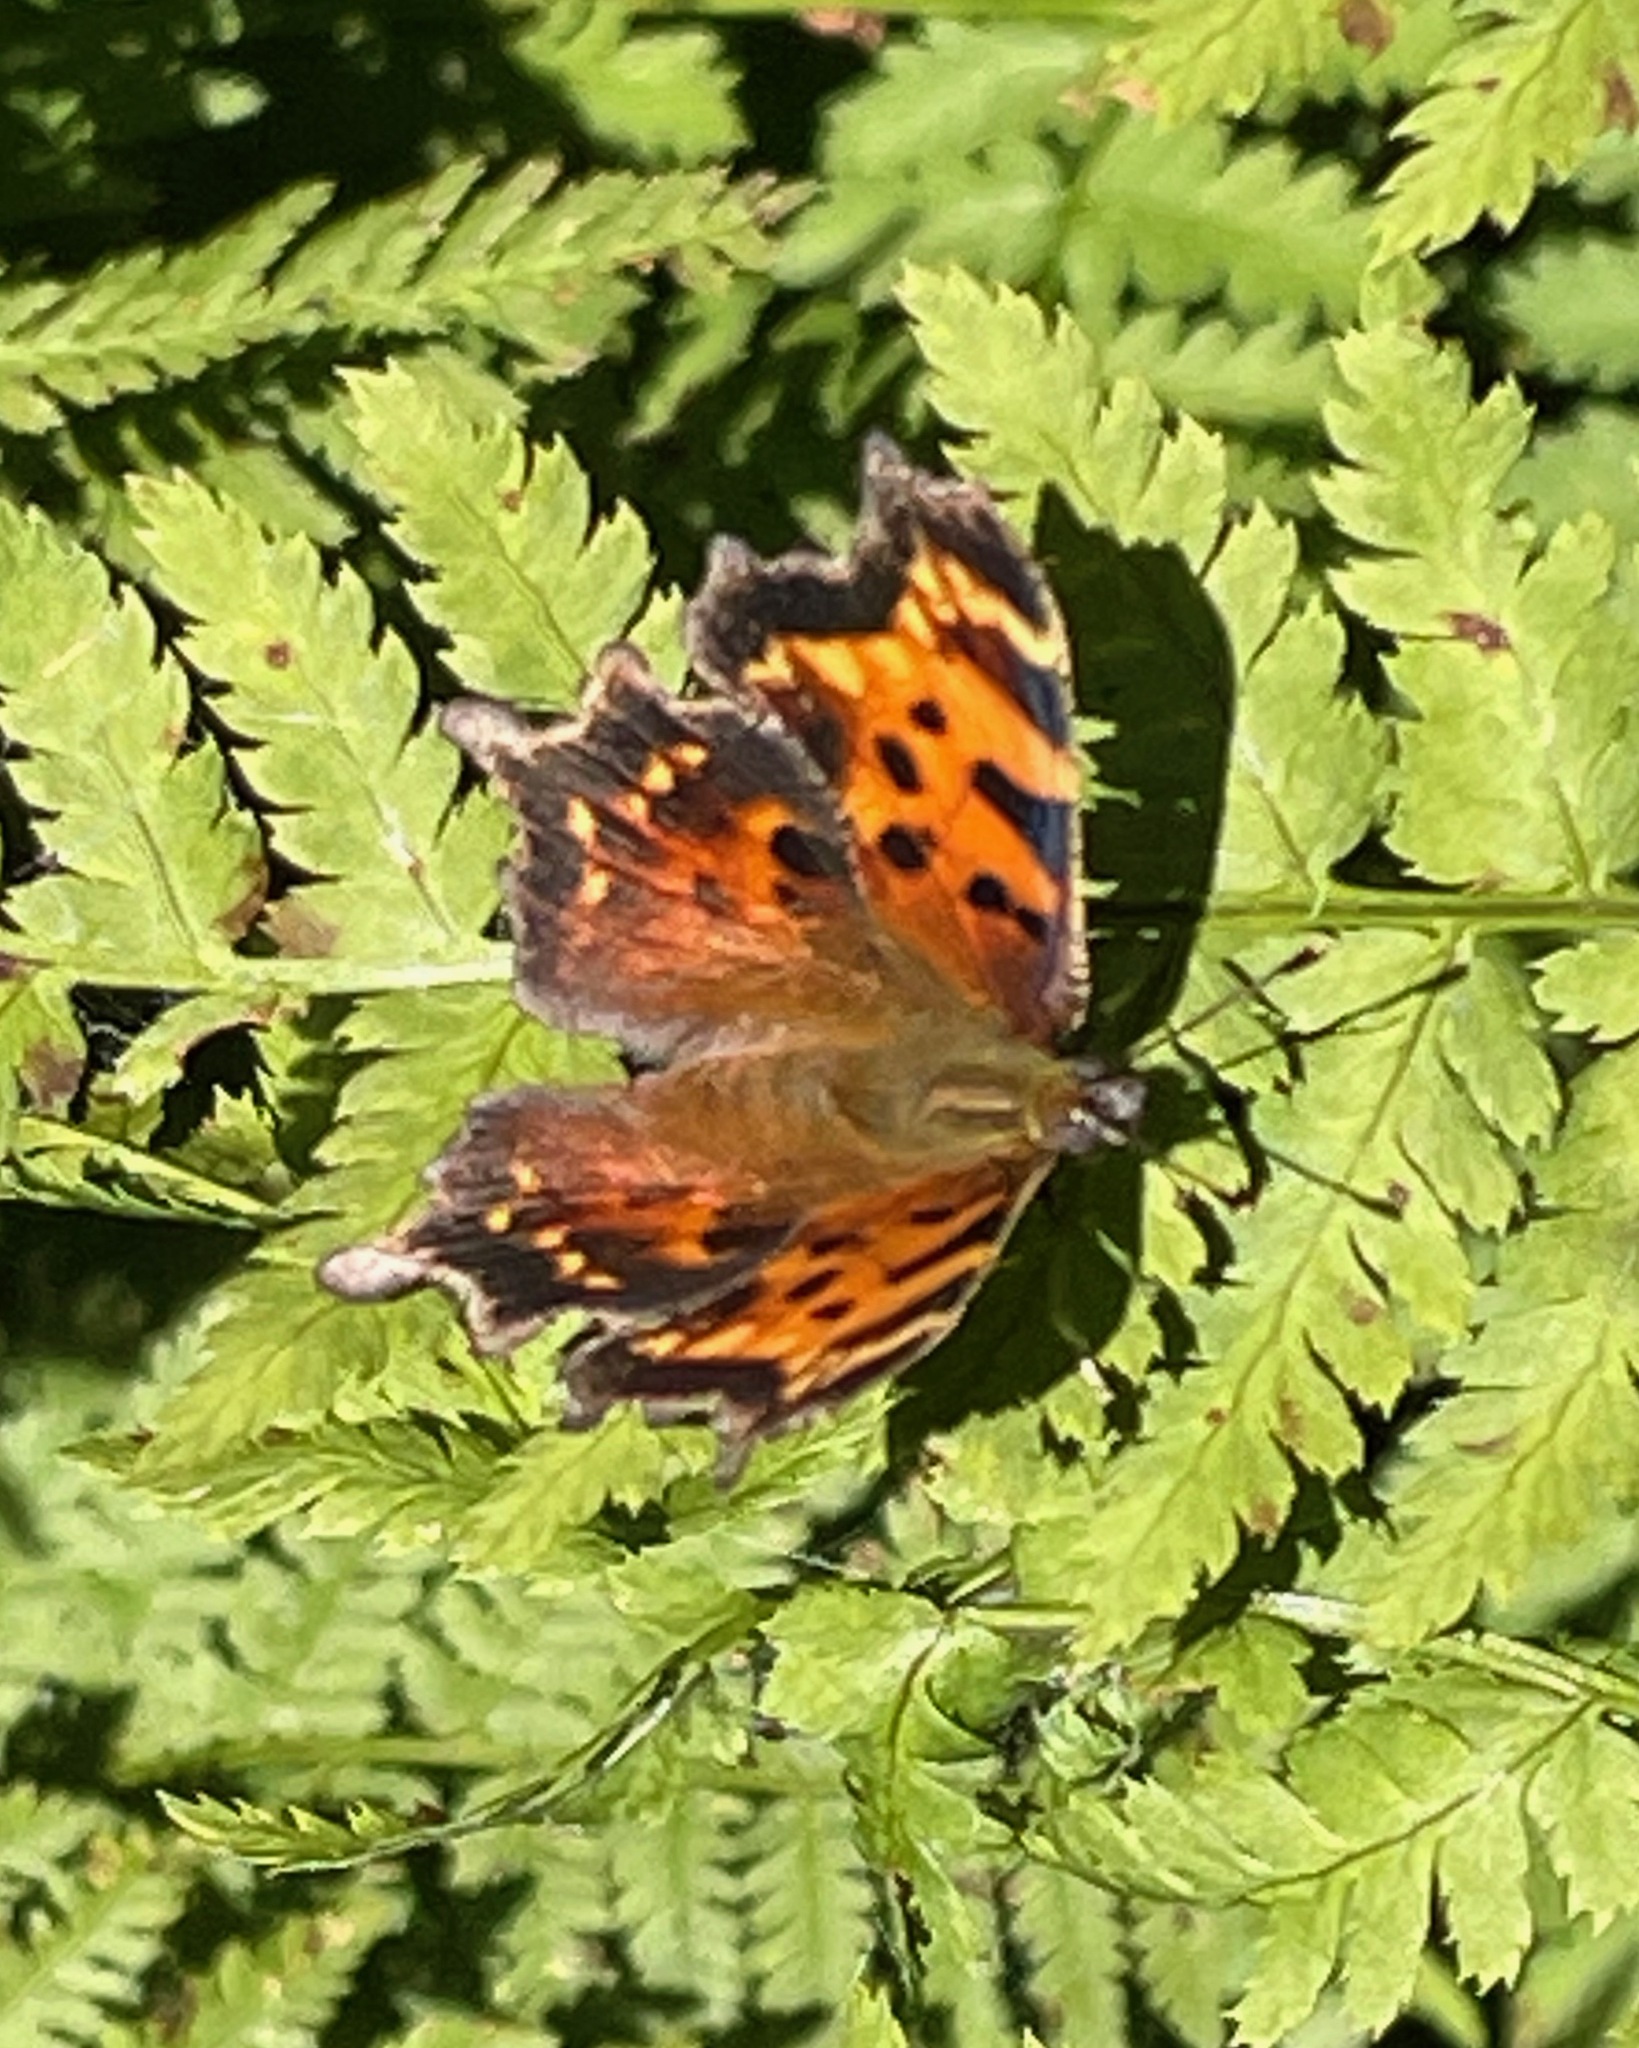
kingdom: Animalia
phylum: Arthropoda
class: Insecta
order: Lepidoptera
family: Nymphalidae
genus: Polygonia
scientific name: Polygonia faunus
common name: Green comma
